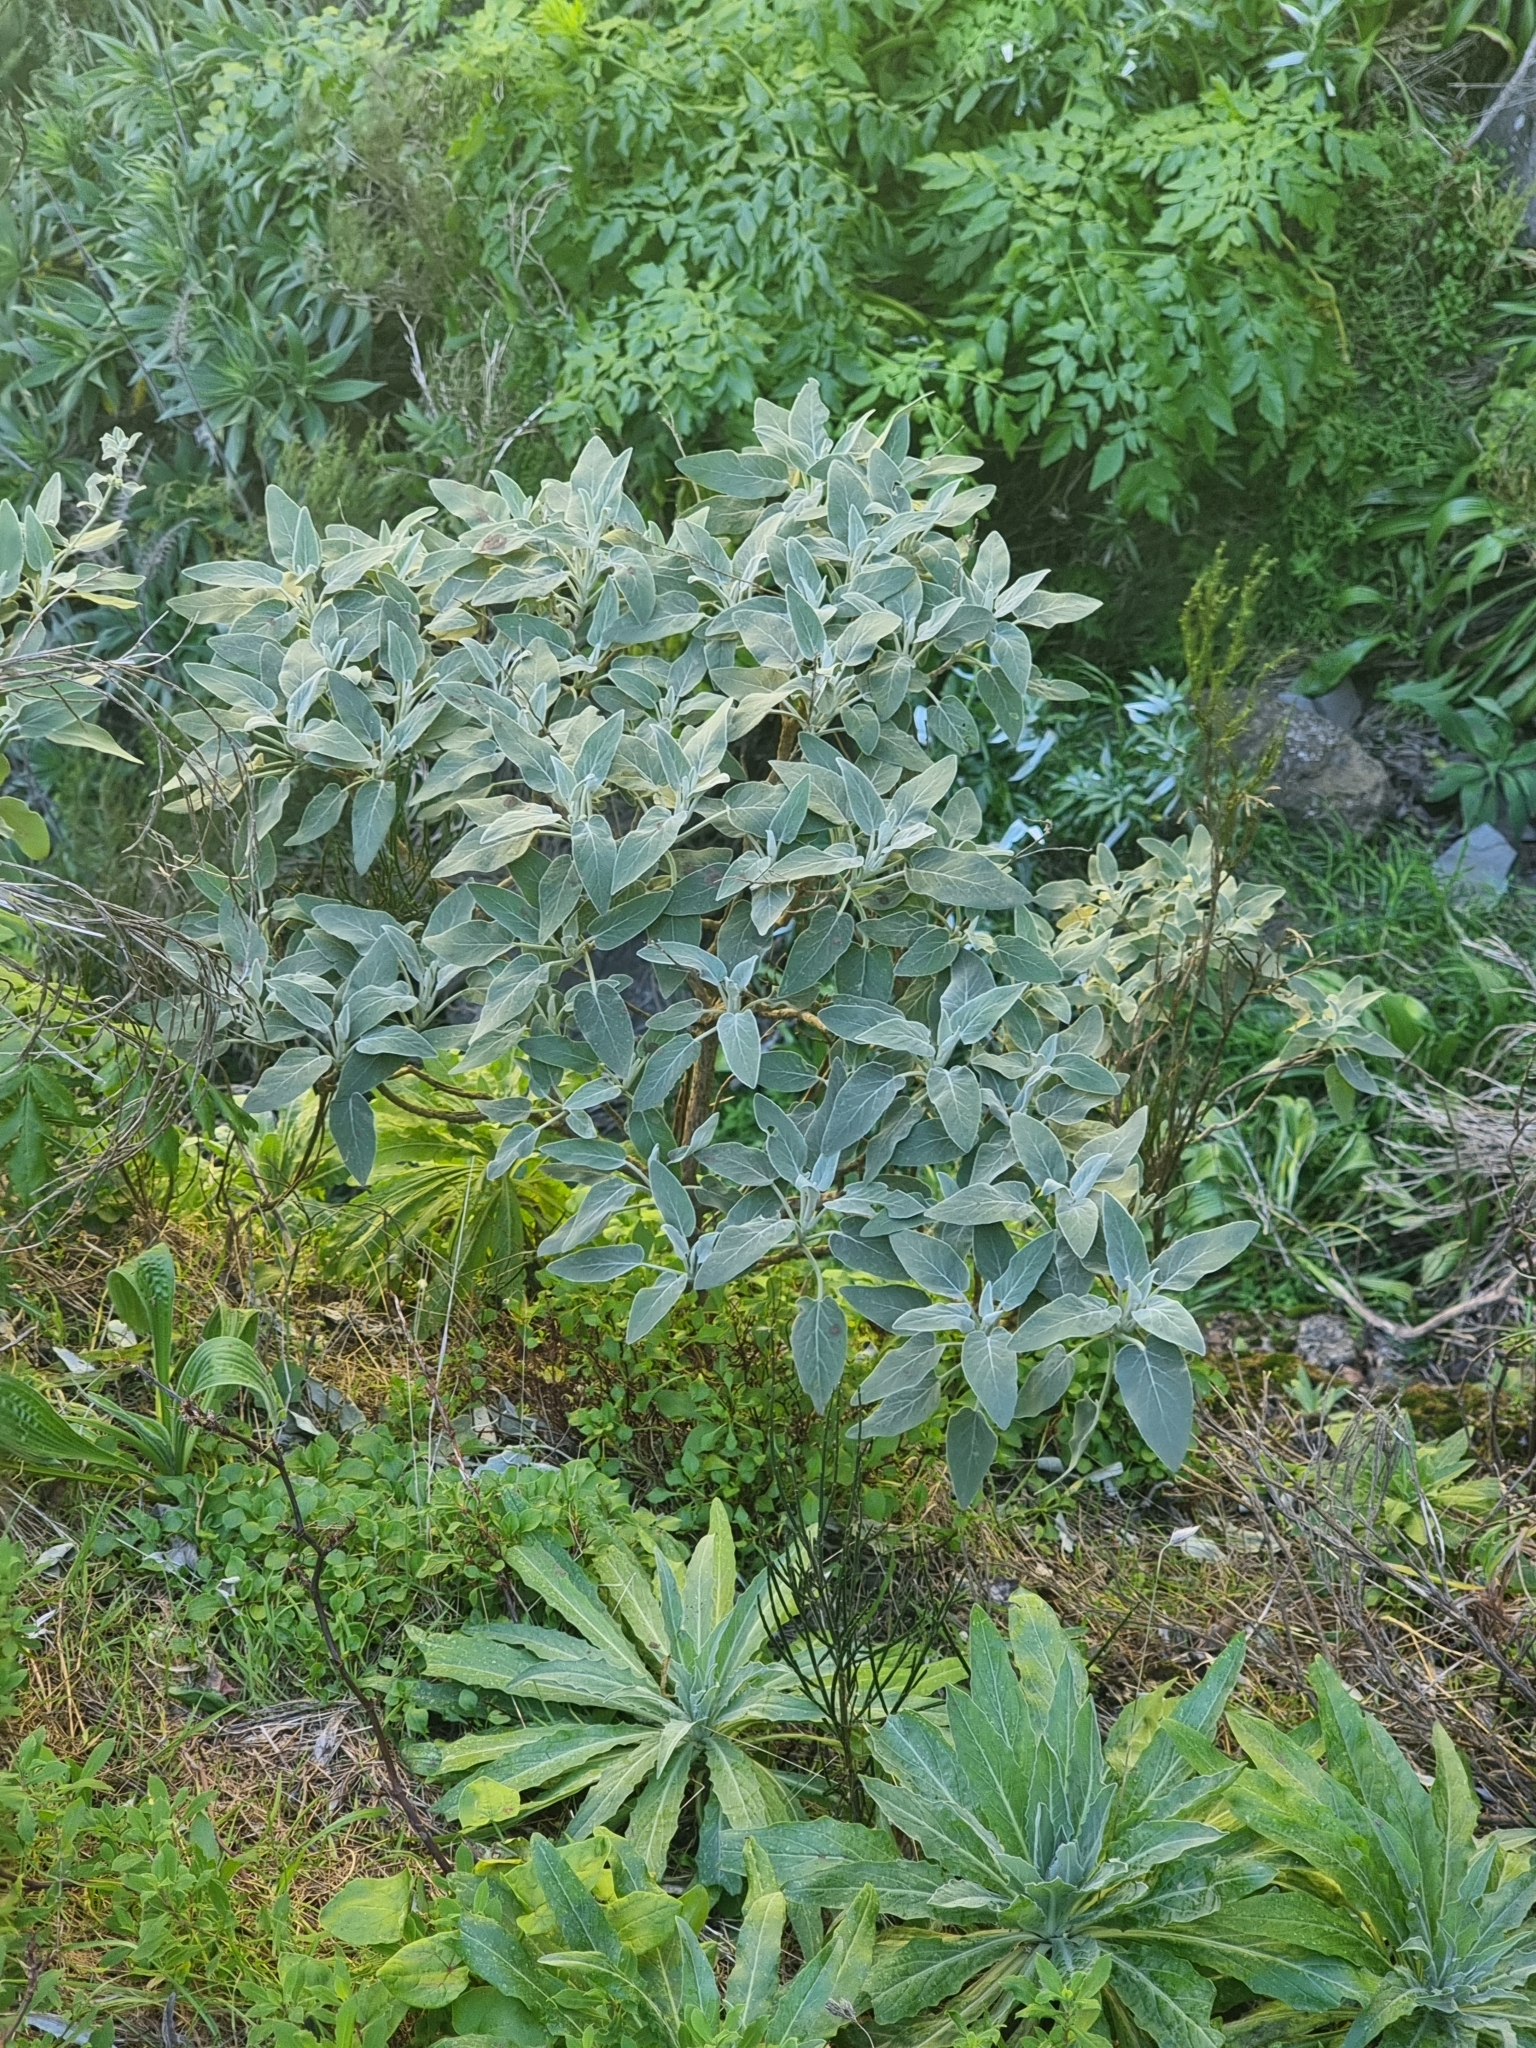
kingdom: Plantae
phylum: Tracheophyta
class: Magnoliopsida
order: Lamiales
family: Lamiaceae
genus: Sideritis
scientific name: Sideritis candicans
